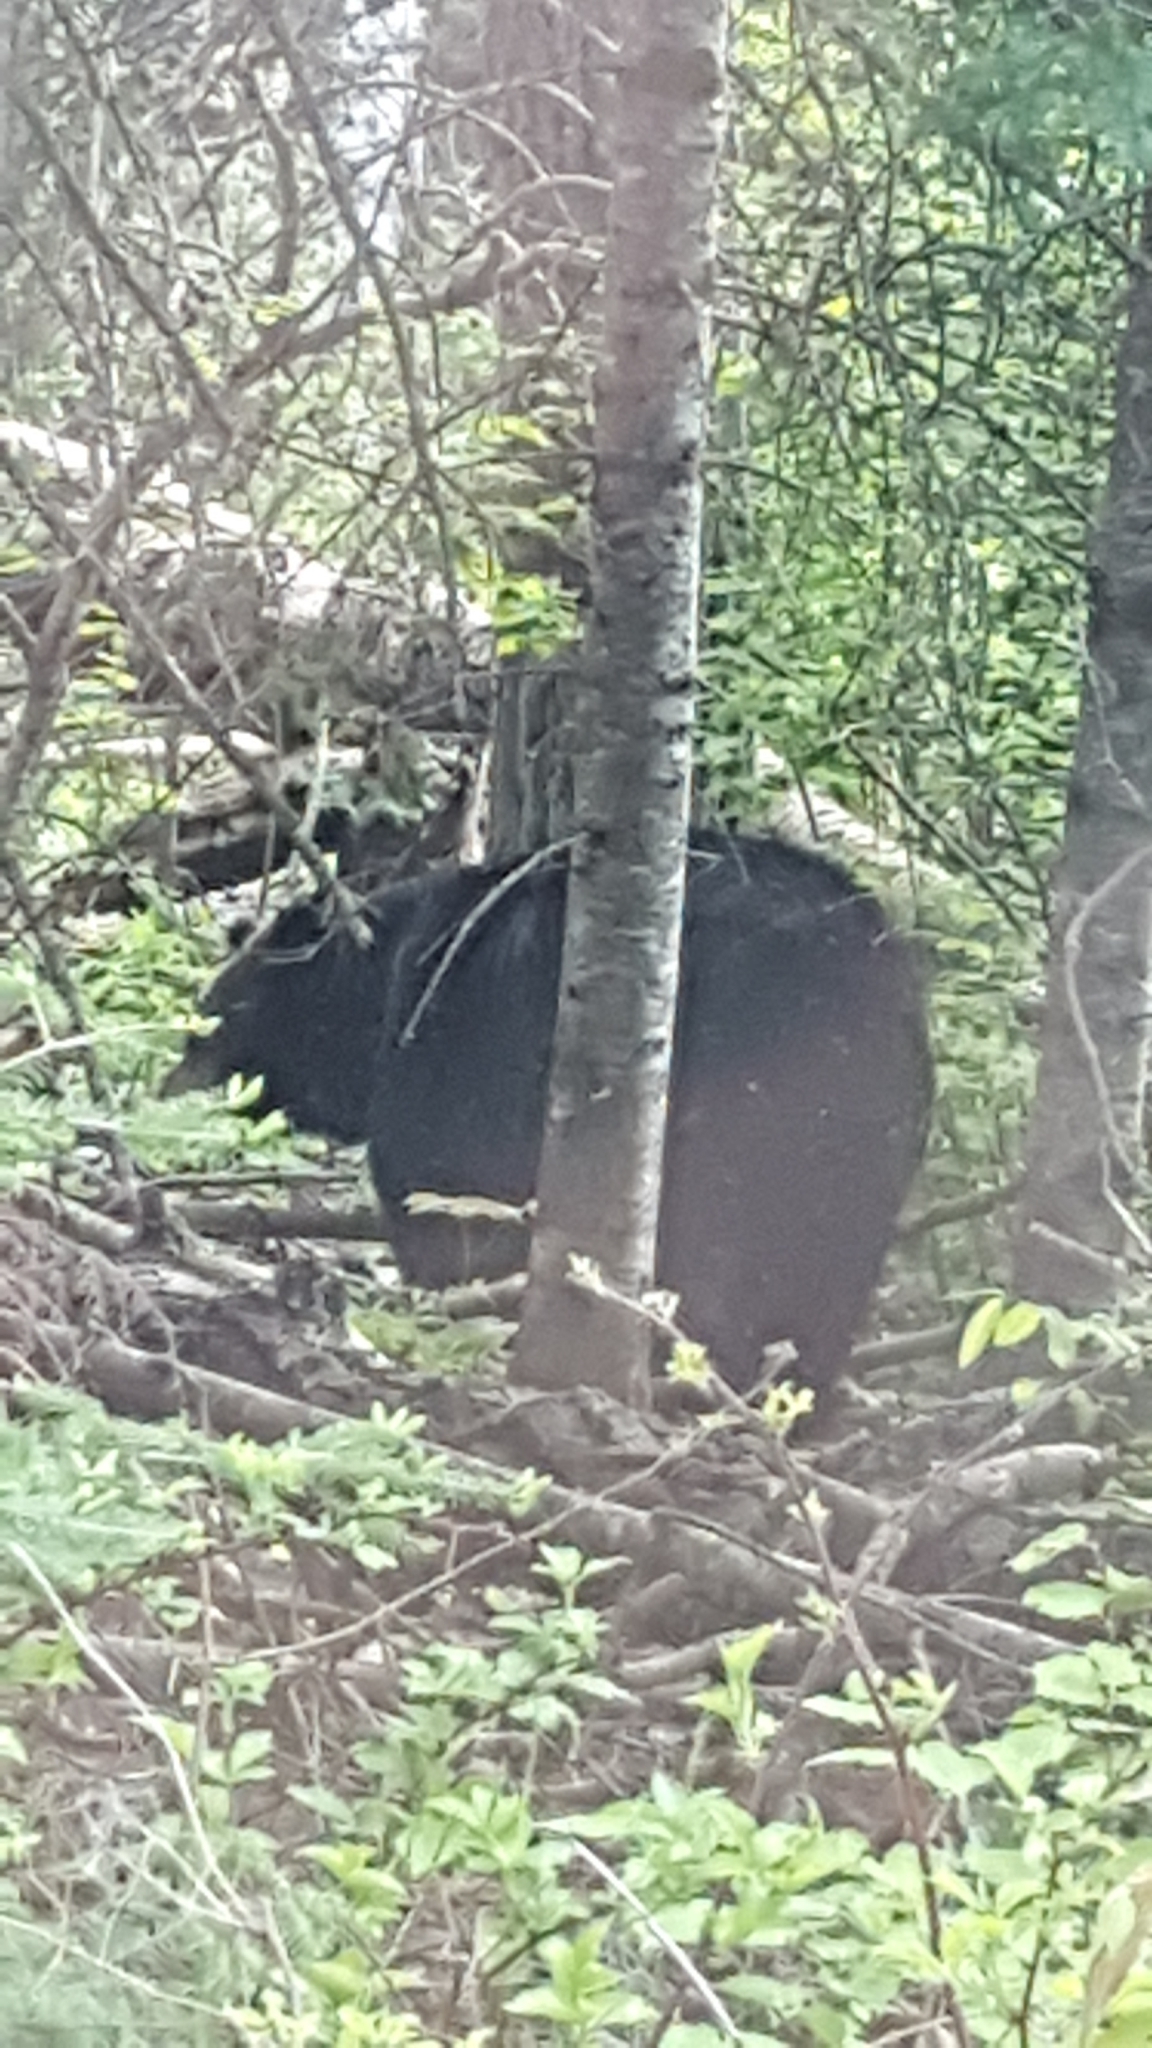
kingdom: Animalia
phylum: Chordata
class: Mammalia
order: Carnivora
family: Ursidae
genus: Ursus
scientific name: Ursus americanus
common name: American black bear
